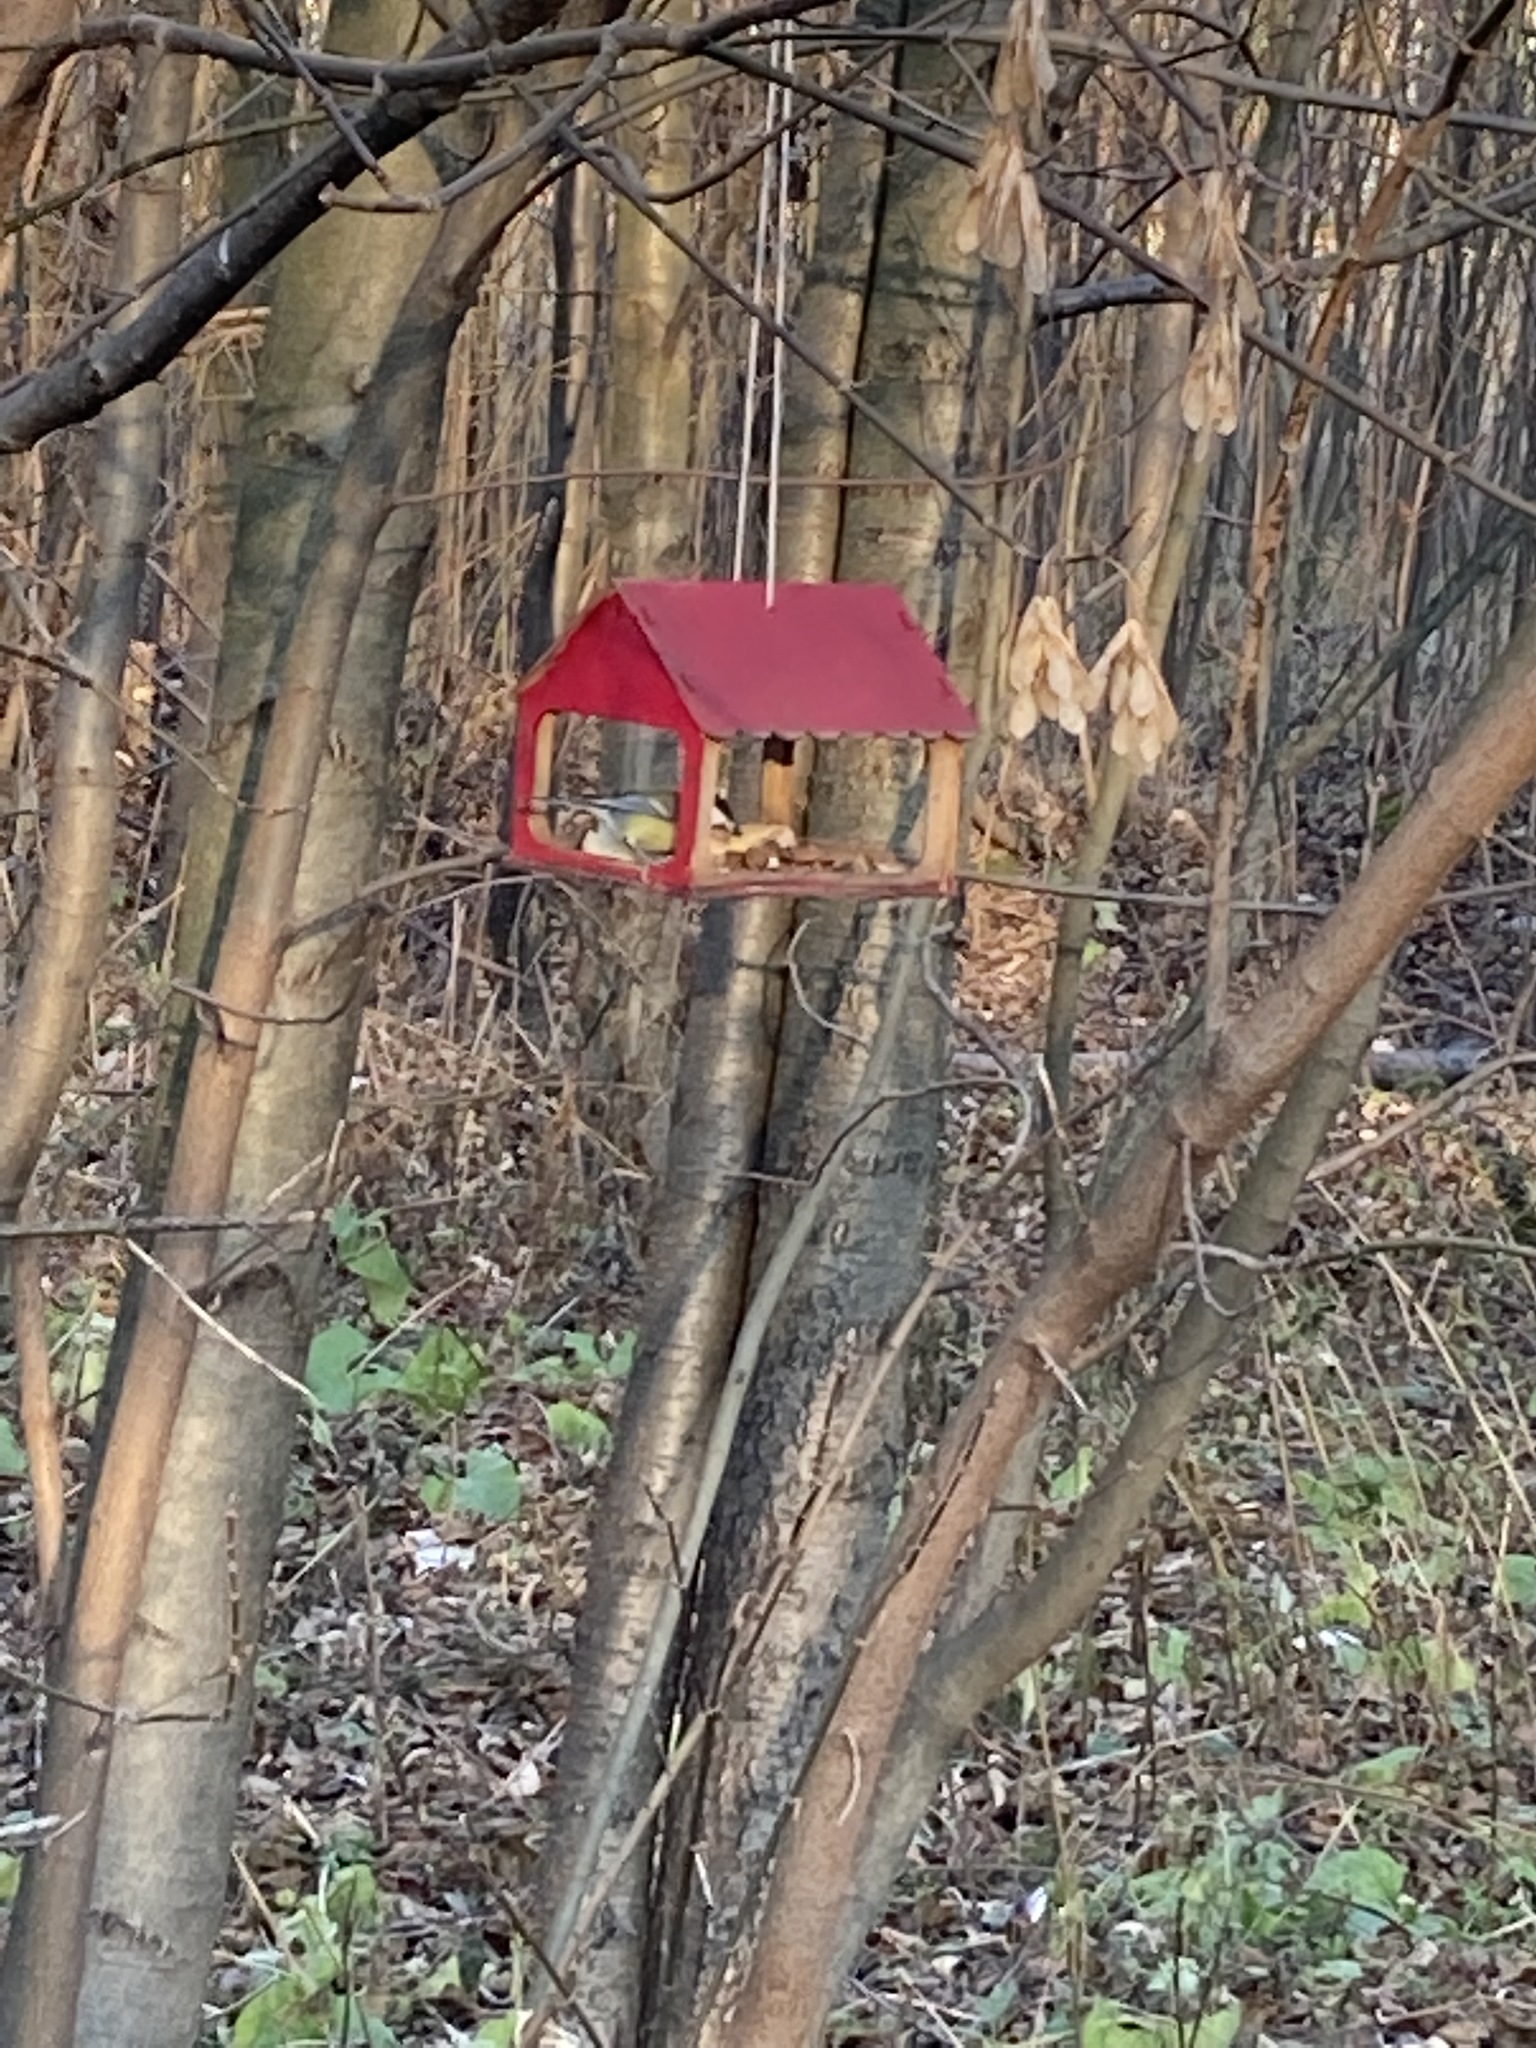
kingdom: Animalia
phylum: Chordata
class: Aves
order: Passeriformes
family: Paridae
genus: Parus
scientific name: Parus major
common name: Great tit
